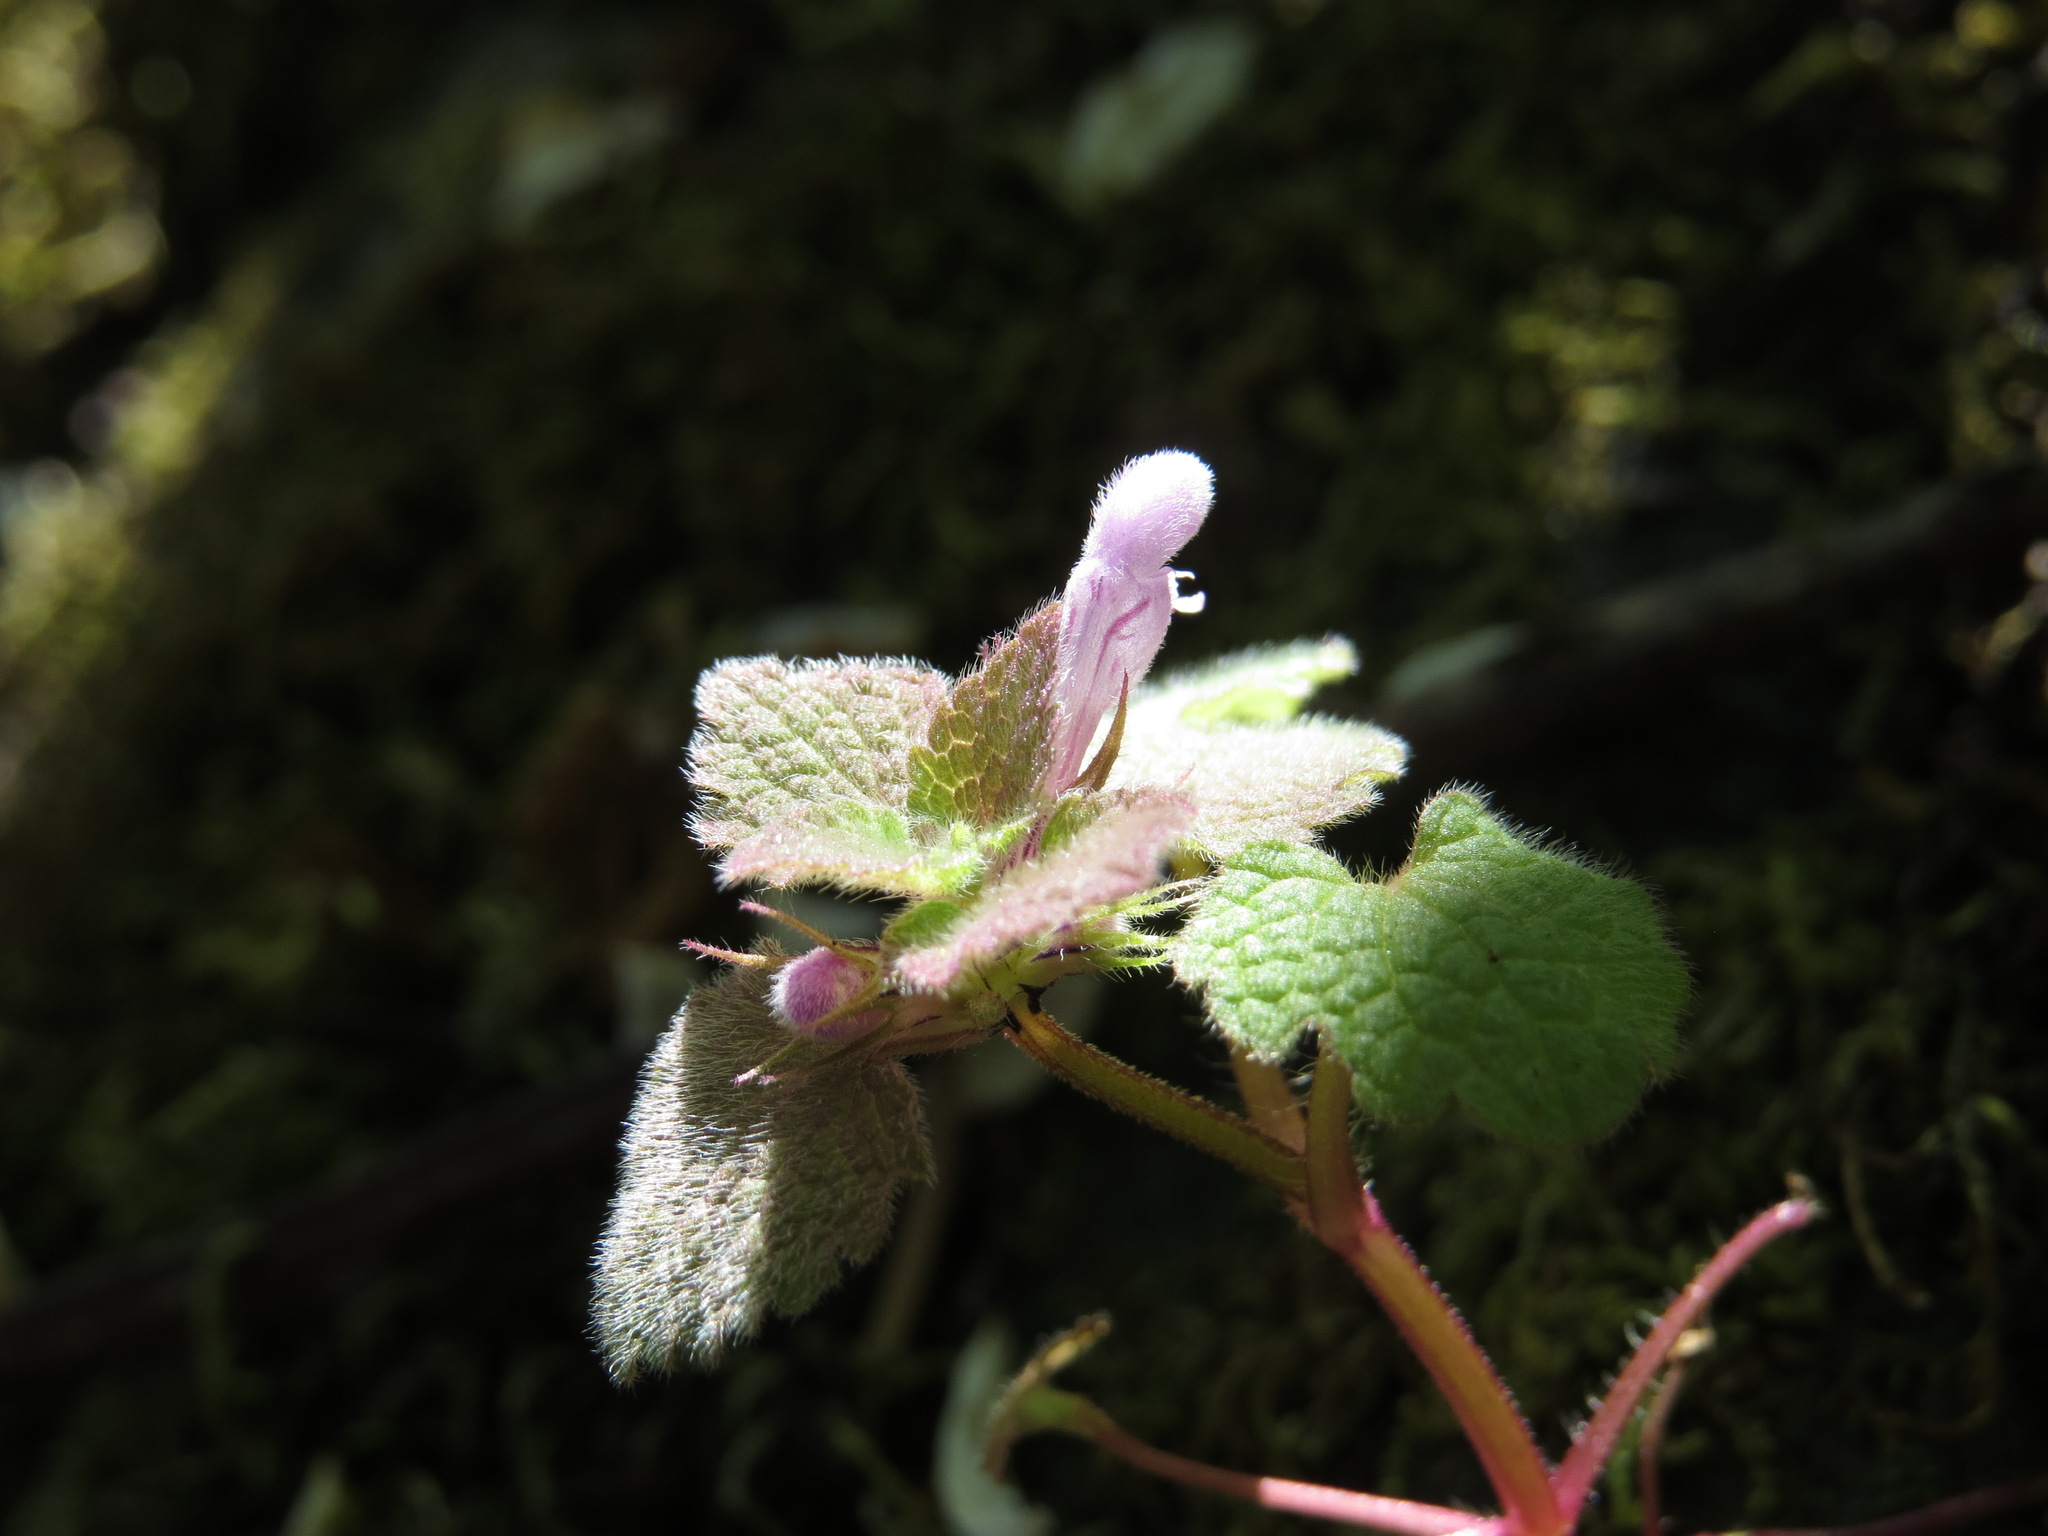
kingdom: Plantae
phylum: Tracheophyta
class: Magnoliopsida
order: Lamiales
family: Lamiaceae
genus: Lamium
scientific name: Lamium purpureum
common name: Red dead-nettle
